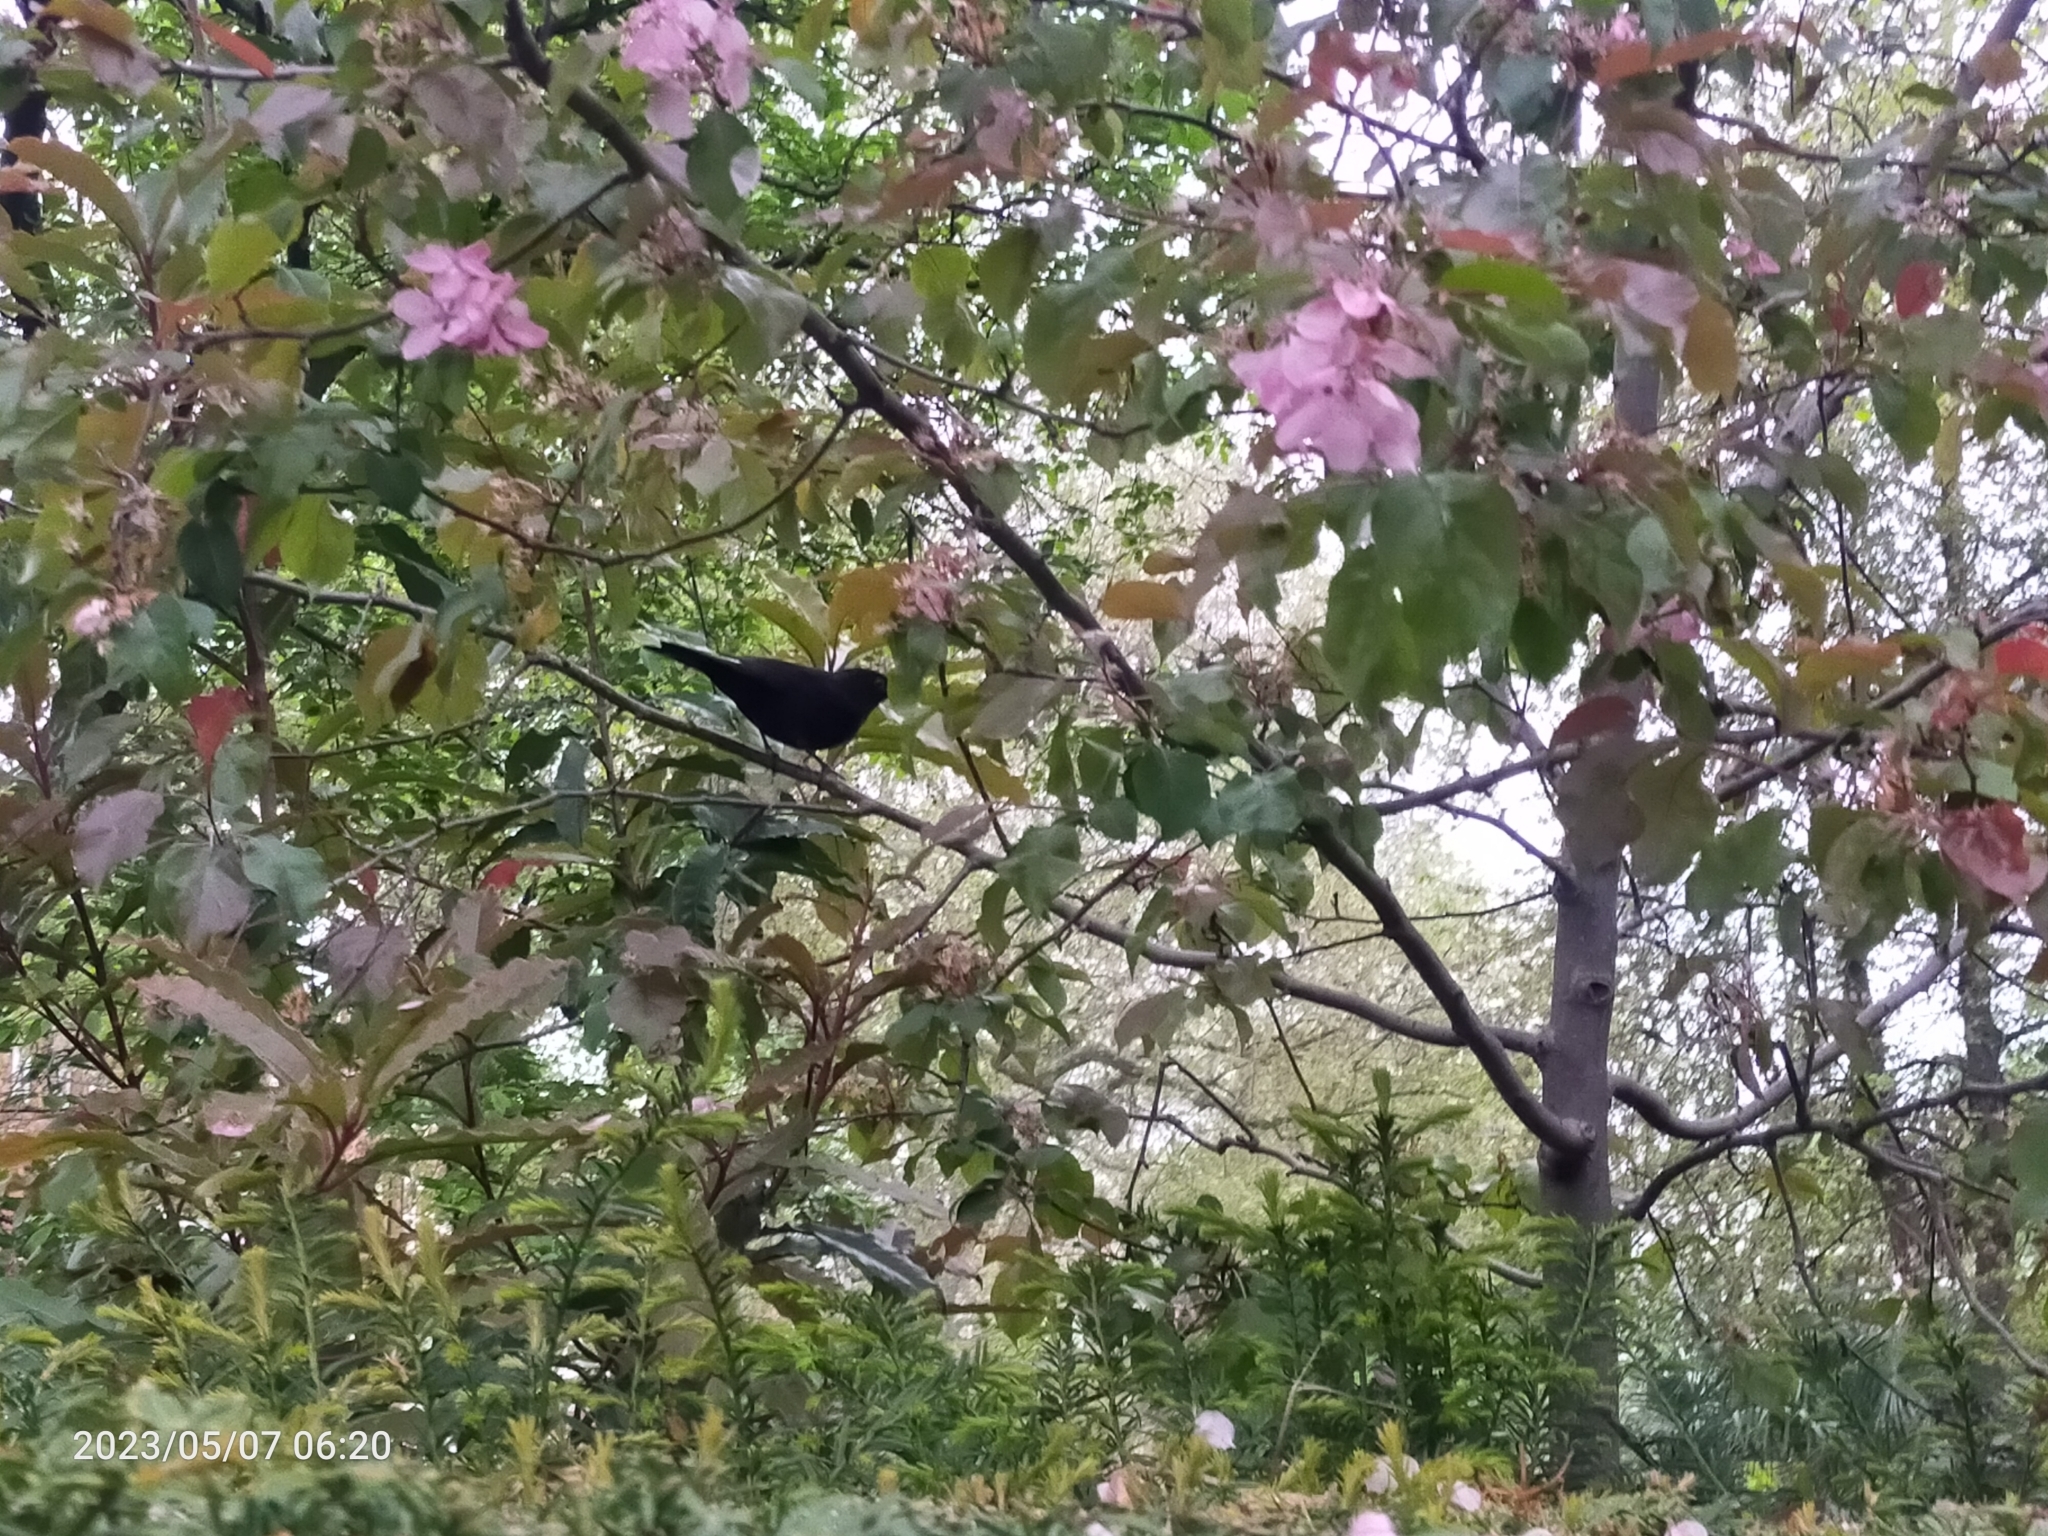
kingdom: Animalia
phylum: Chordata
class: Aves
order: Passeriformes
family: Turdidae
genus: Turdus
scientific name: Turdus merula
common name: Common blackbird
